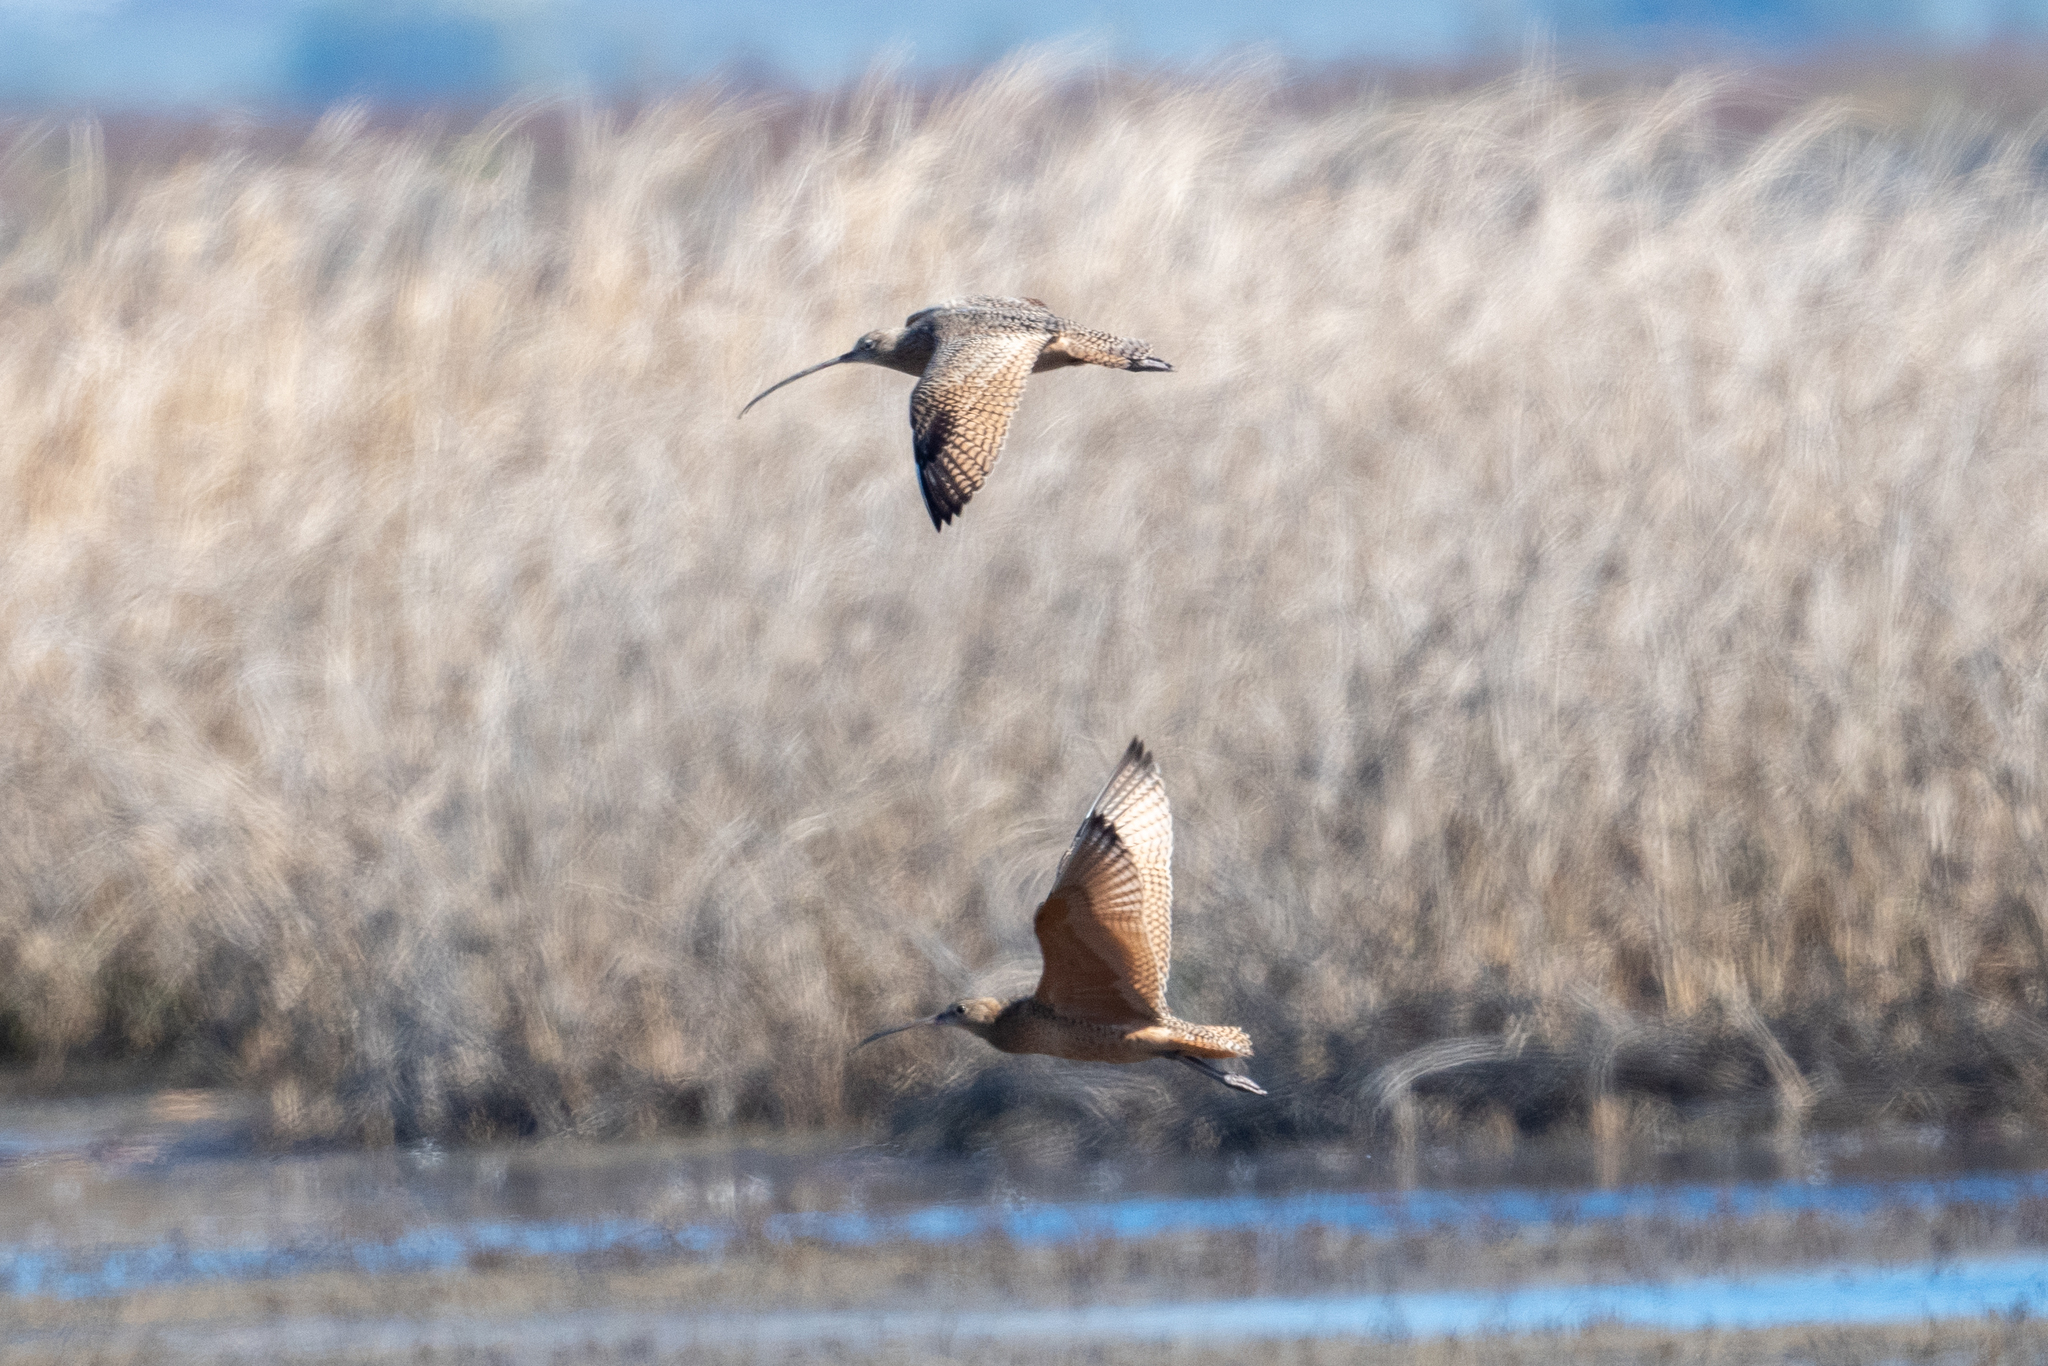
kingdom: Animalia
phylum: Chordata
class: Aves
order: Charadriiformes
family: Scolopacidae
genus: Numenius
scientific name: Numenius americanus
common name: Long-billed curlew
